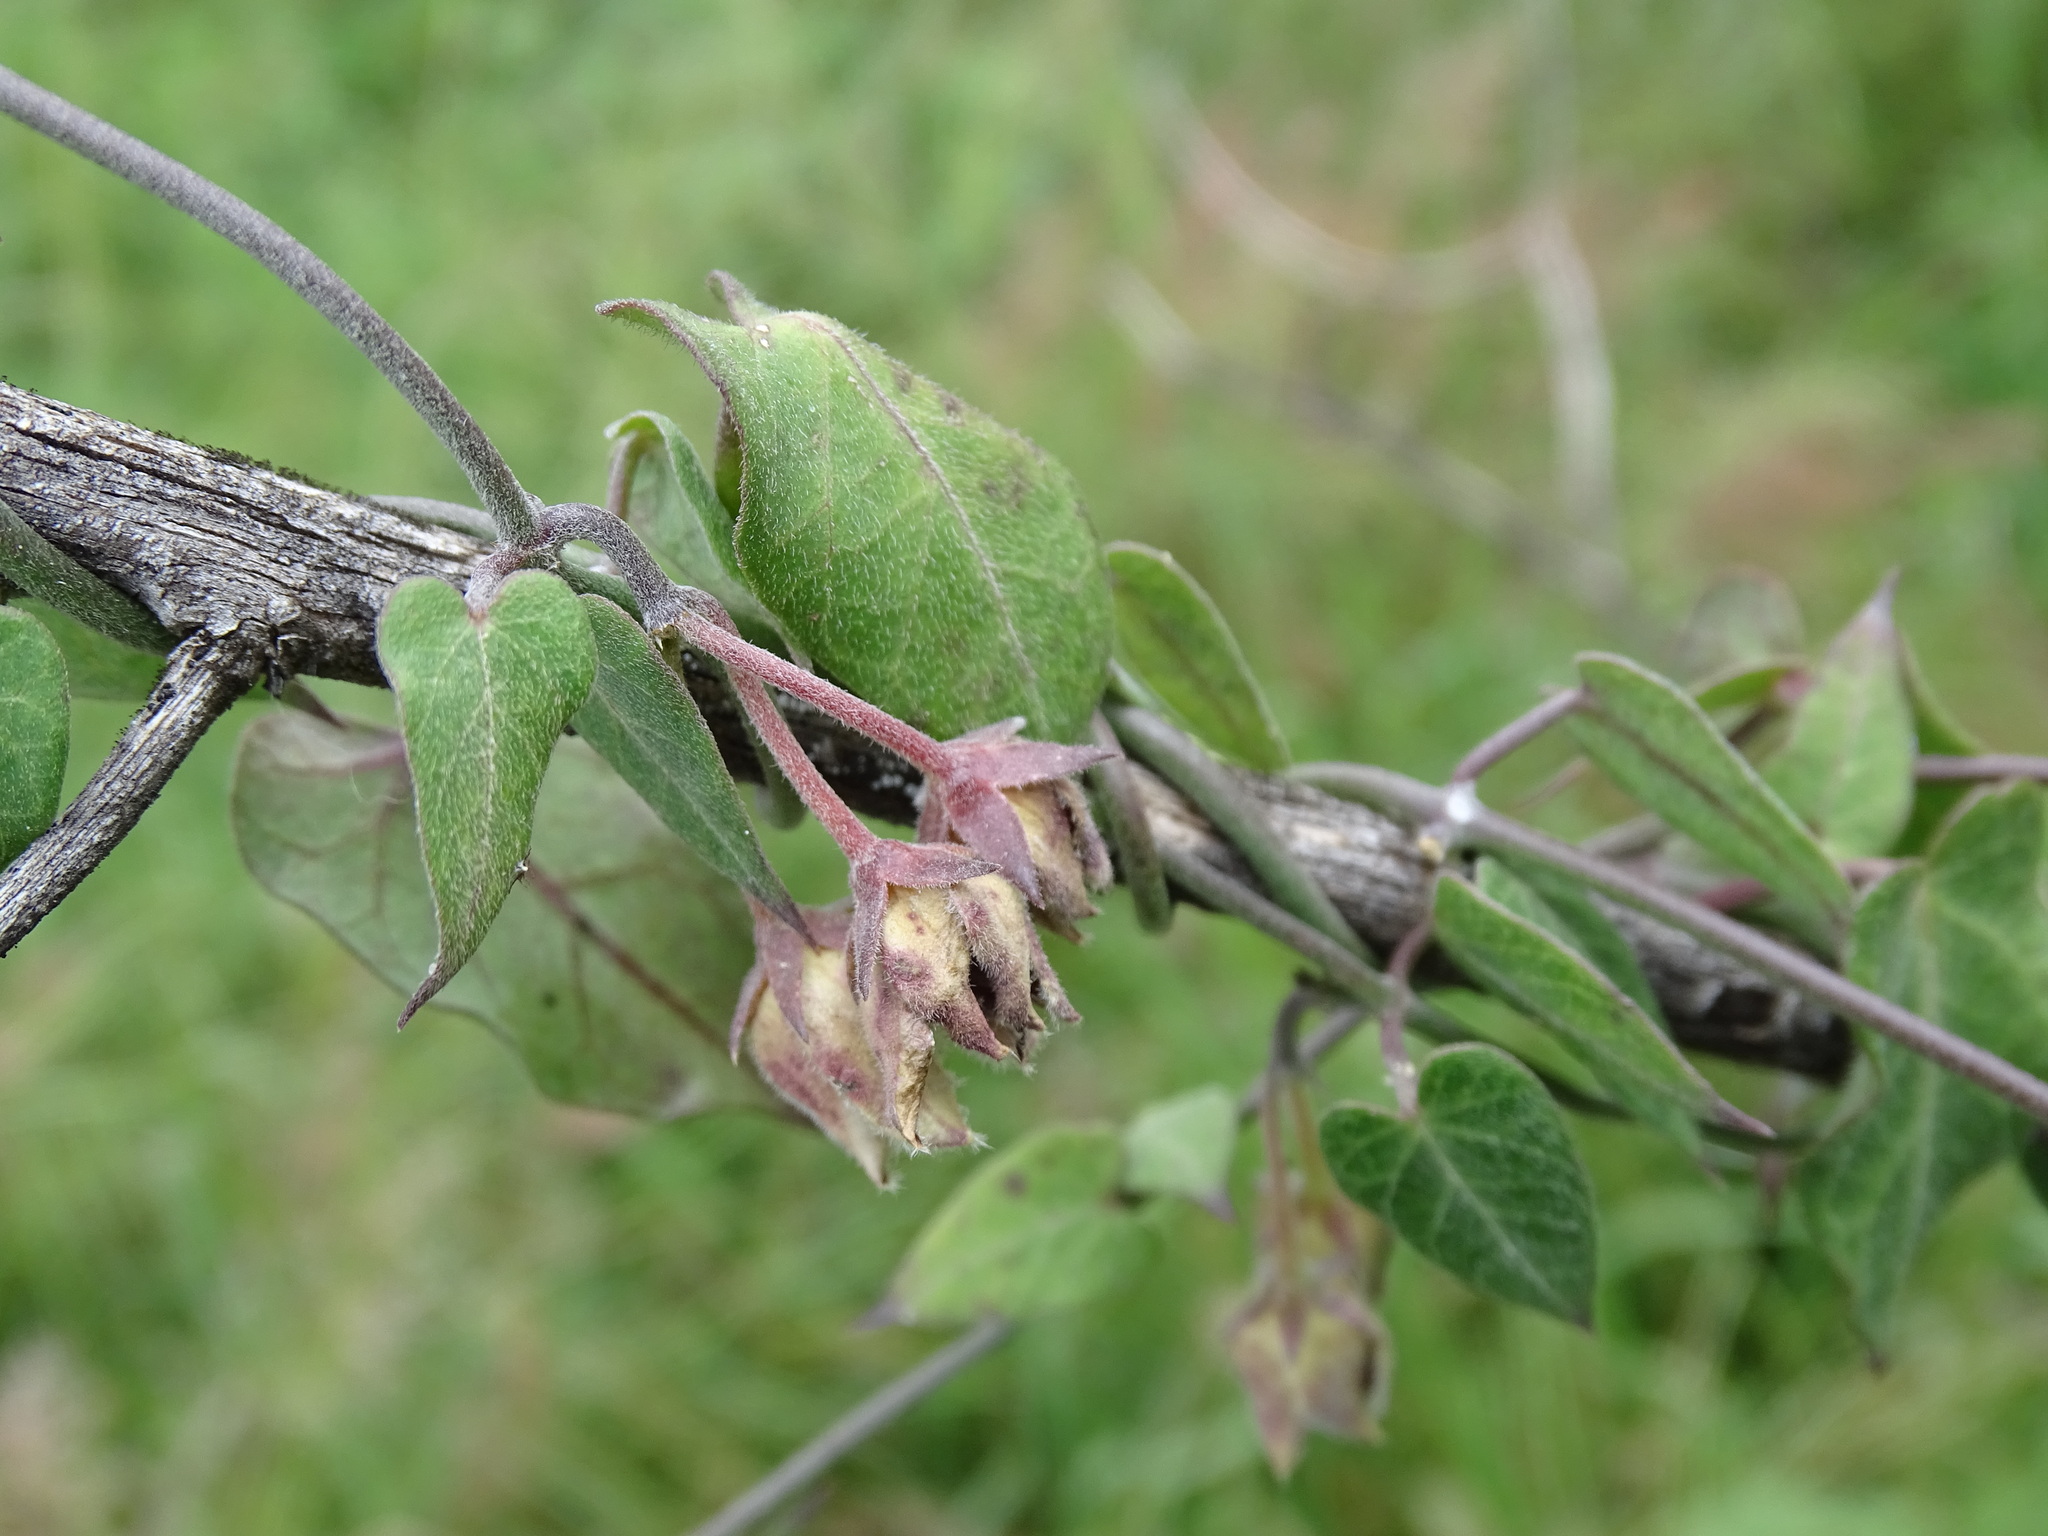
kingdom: Plantae
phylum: Tracheophyta
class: Magnoliopsida
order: Gentianales
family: Apocynaceae
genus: Funastrum
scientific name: Funastrum elegans
